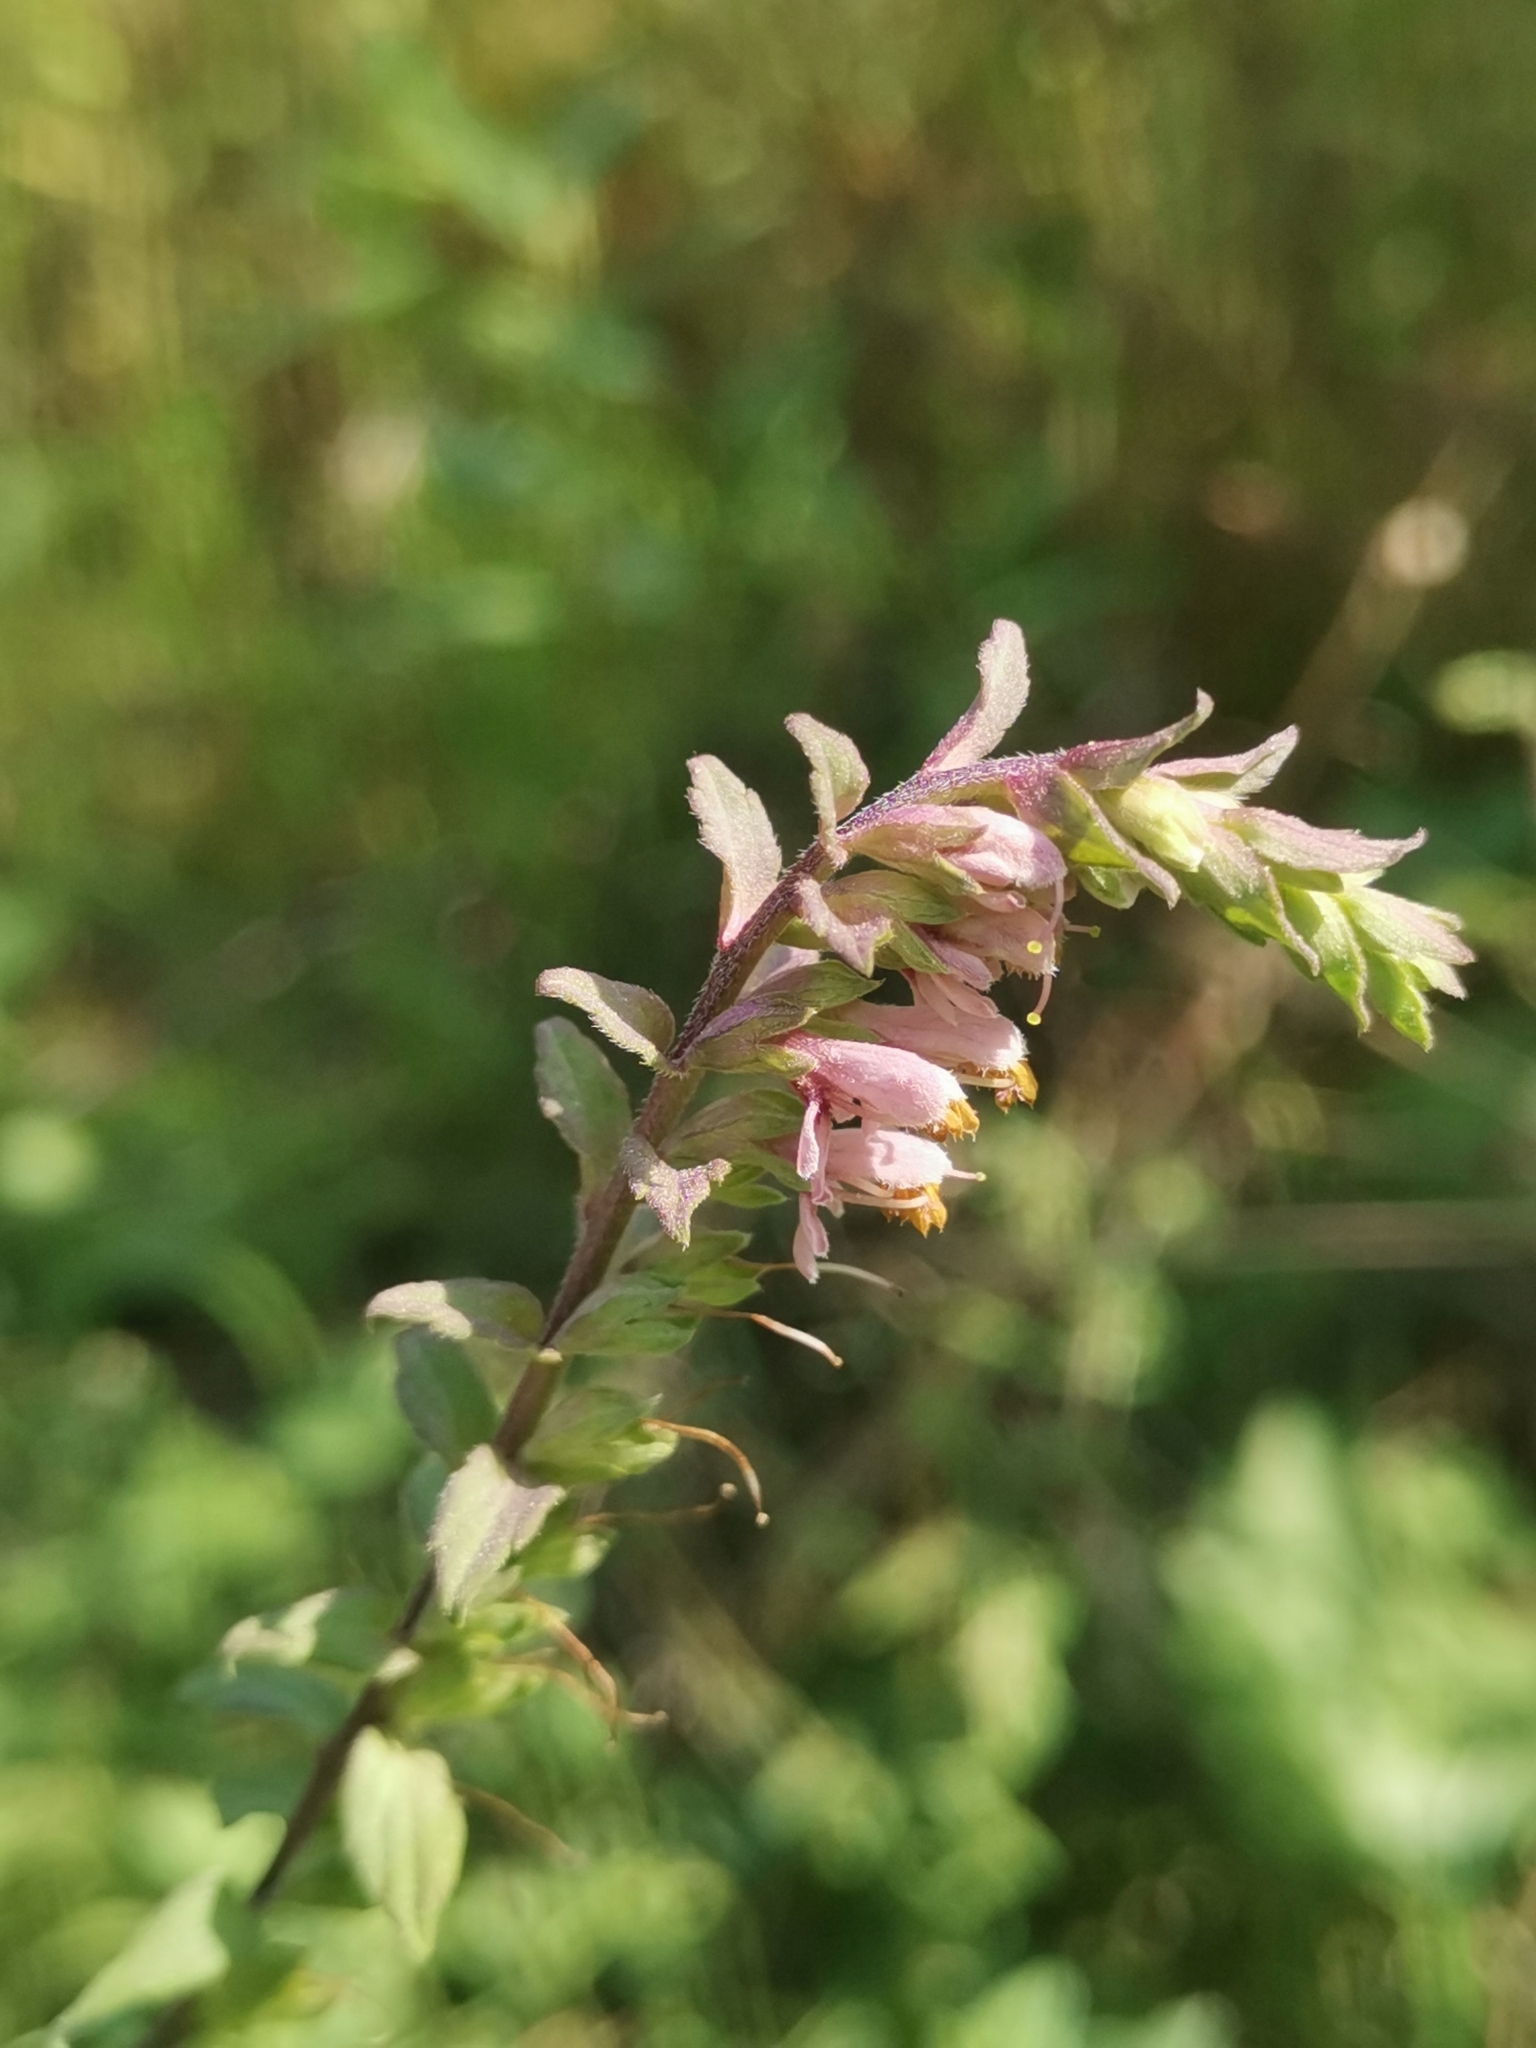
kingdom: Plantae
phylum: Tracheophyta
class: Magnoliopsida
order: Lamiales
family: Orobanchaceae
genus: Odontites
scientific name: Odontites vulgaris
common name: Broomrape
